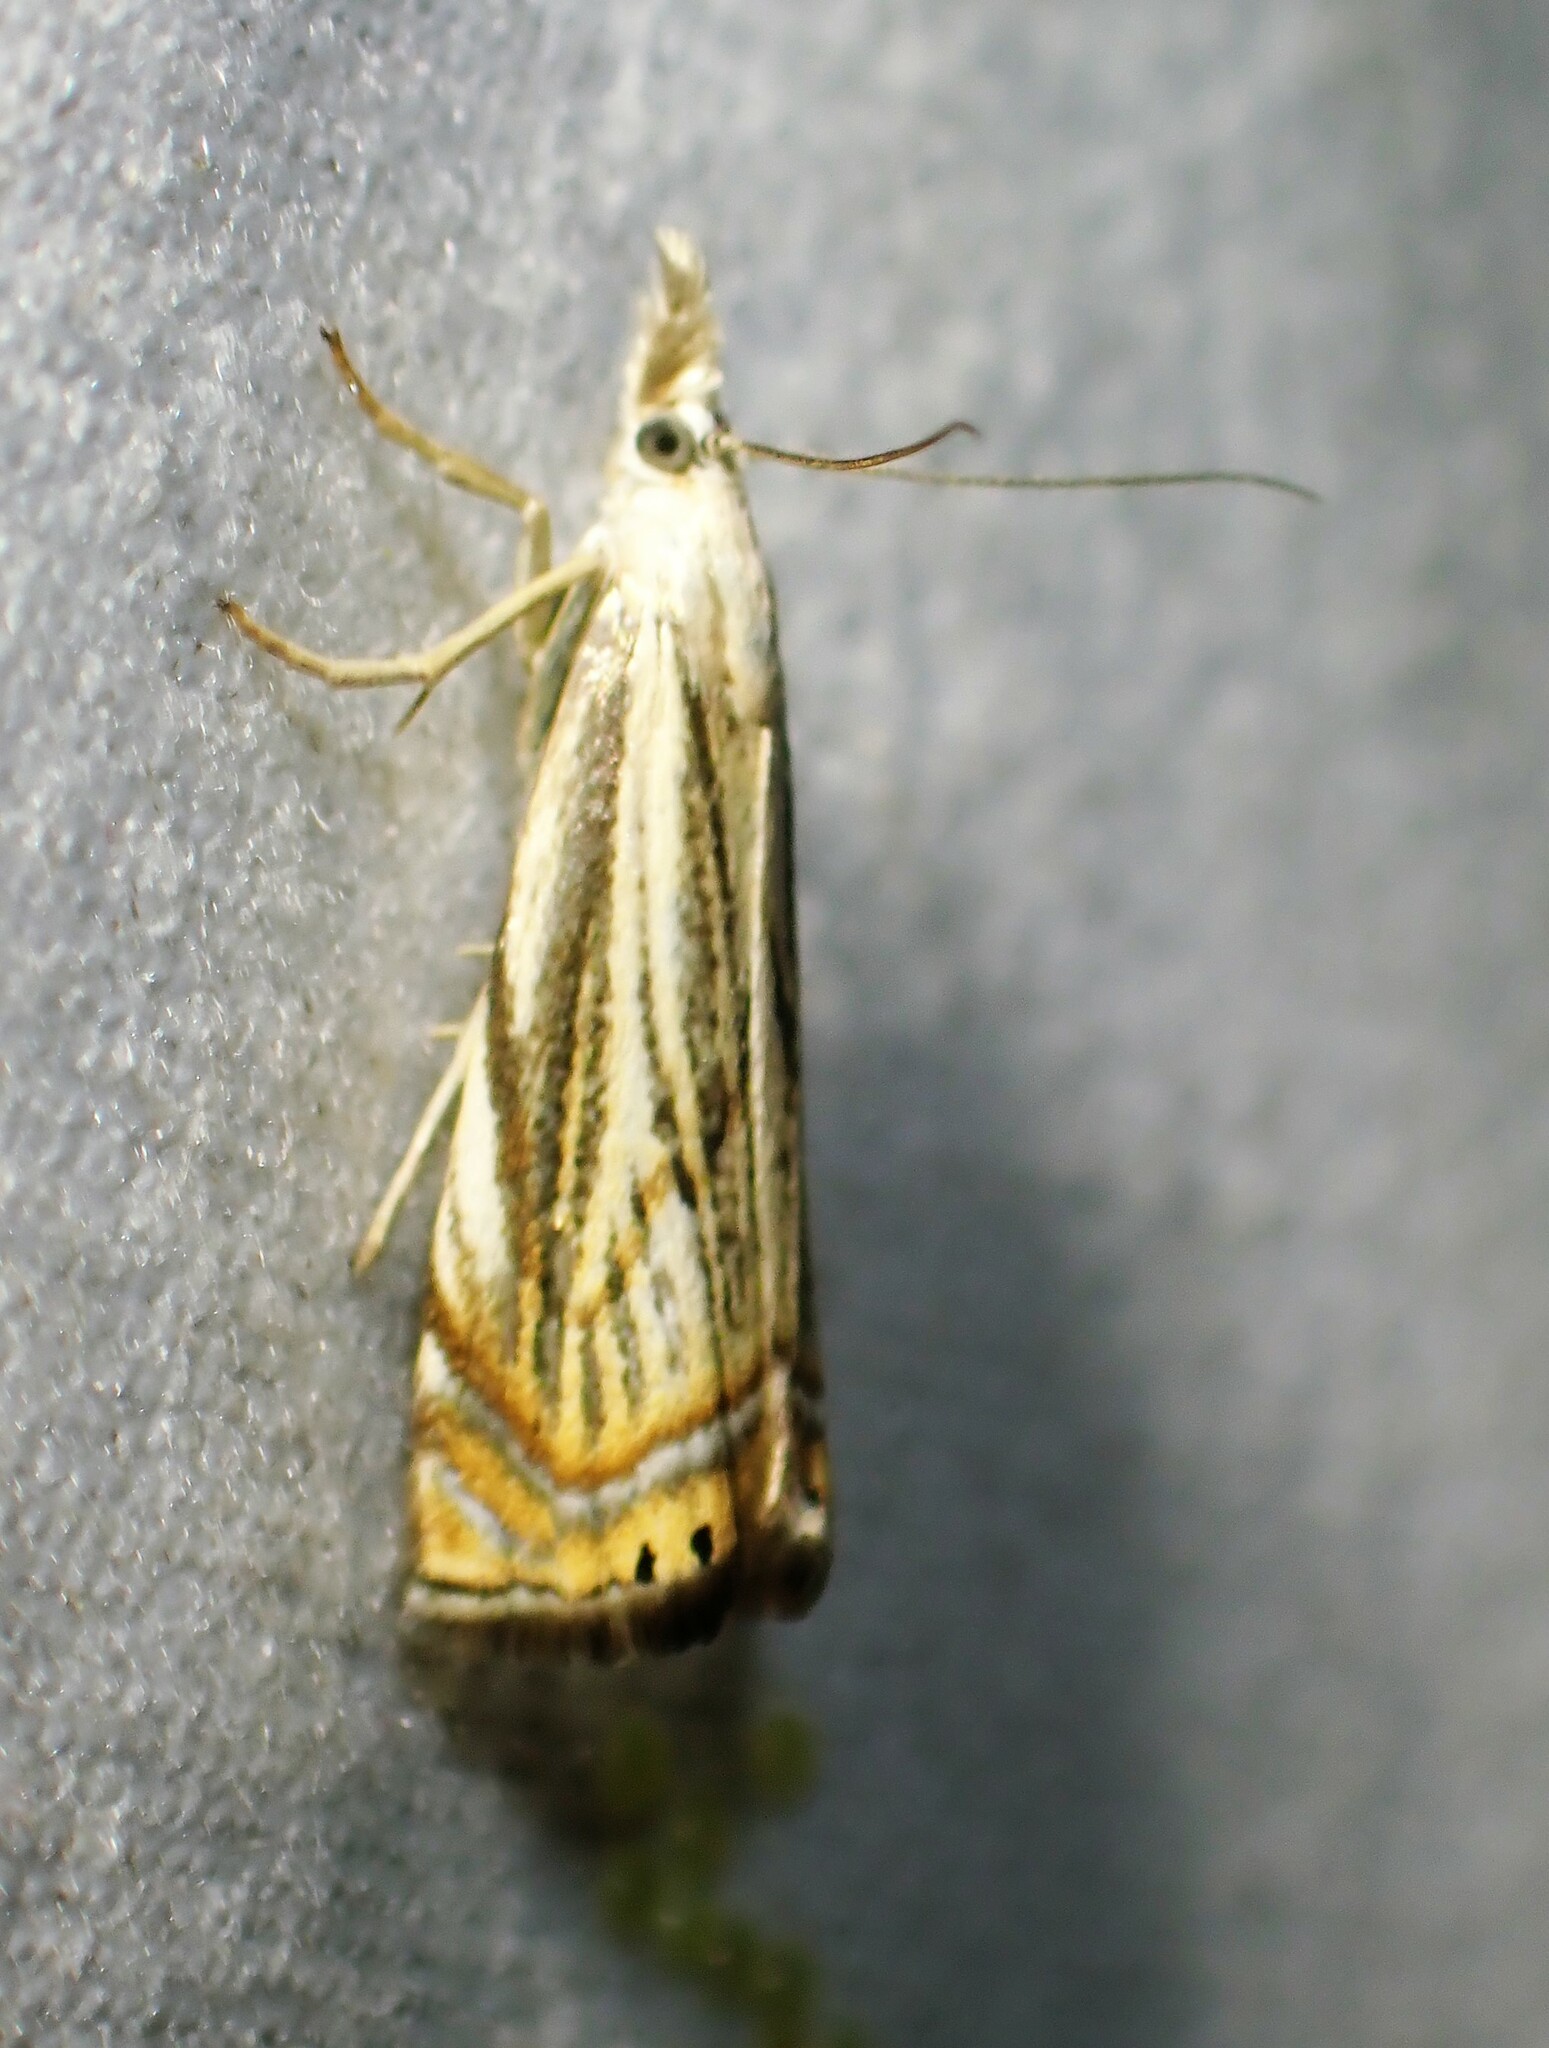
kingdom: Animalia
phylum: Arthropoda
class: Insecta
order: Lepidoptera
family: Crambidae
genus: Chrysoteuchia
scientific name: Chrysoteuchia topiarius
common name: Topiary grass-veneer
